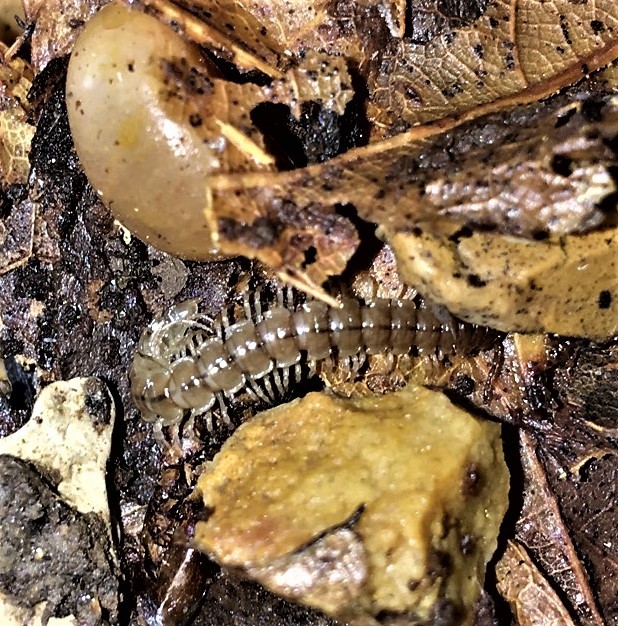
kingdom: Animalia
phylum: Arthropoda
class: Diplopoda
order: Polydesmida
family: Paradoxosomatidae
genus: Oxidus
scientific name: Oxidus gracilis
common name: Greenhouse millipede
